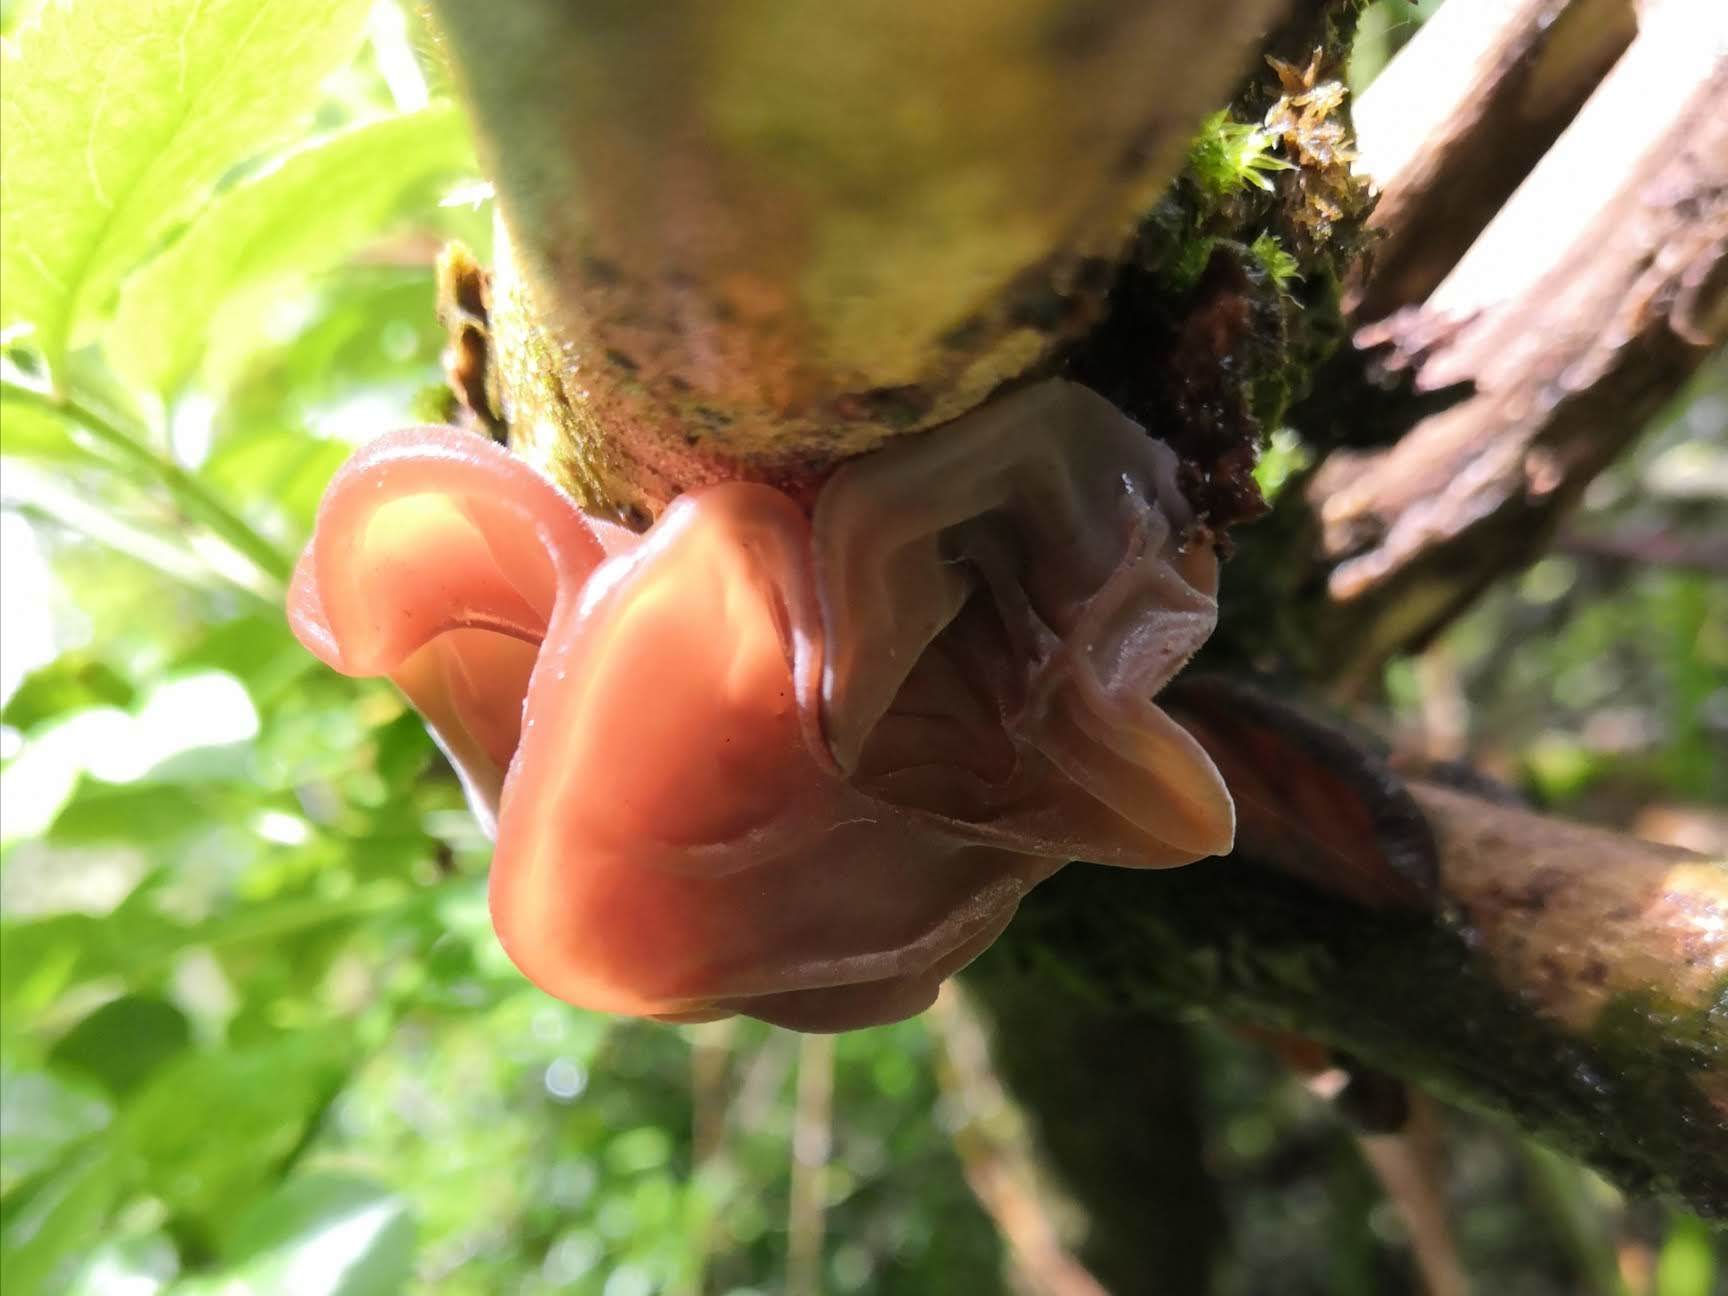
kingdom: Fungi
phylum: Basidiomycota
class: Agaricomycetes
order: Auriculariales
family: Auriculariaceae
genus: Auricularia
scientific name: Auricularia auricula-judae
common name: Jelly ear
